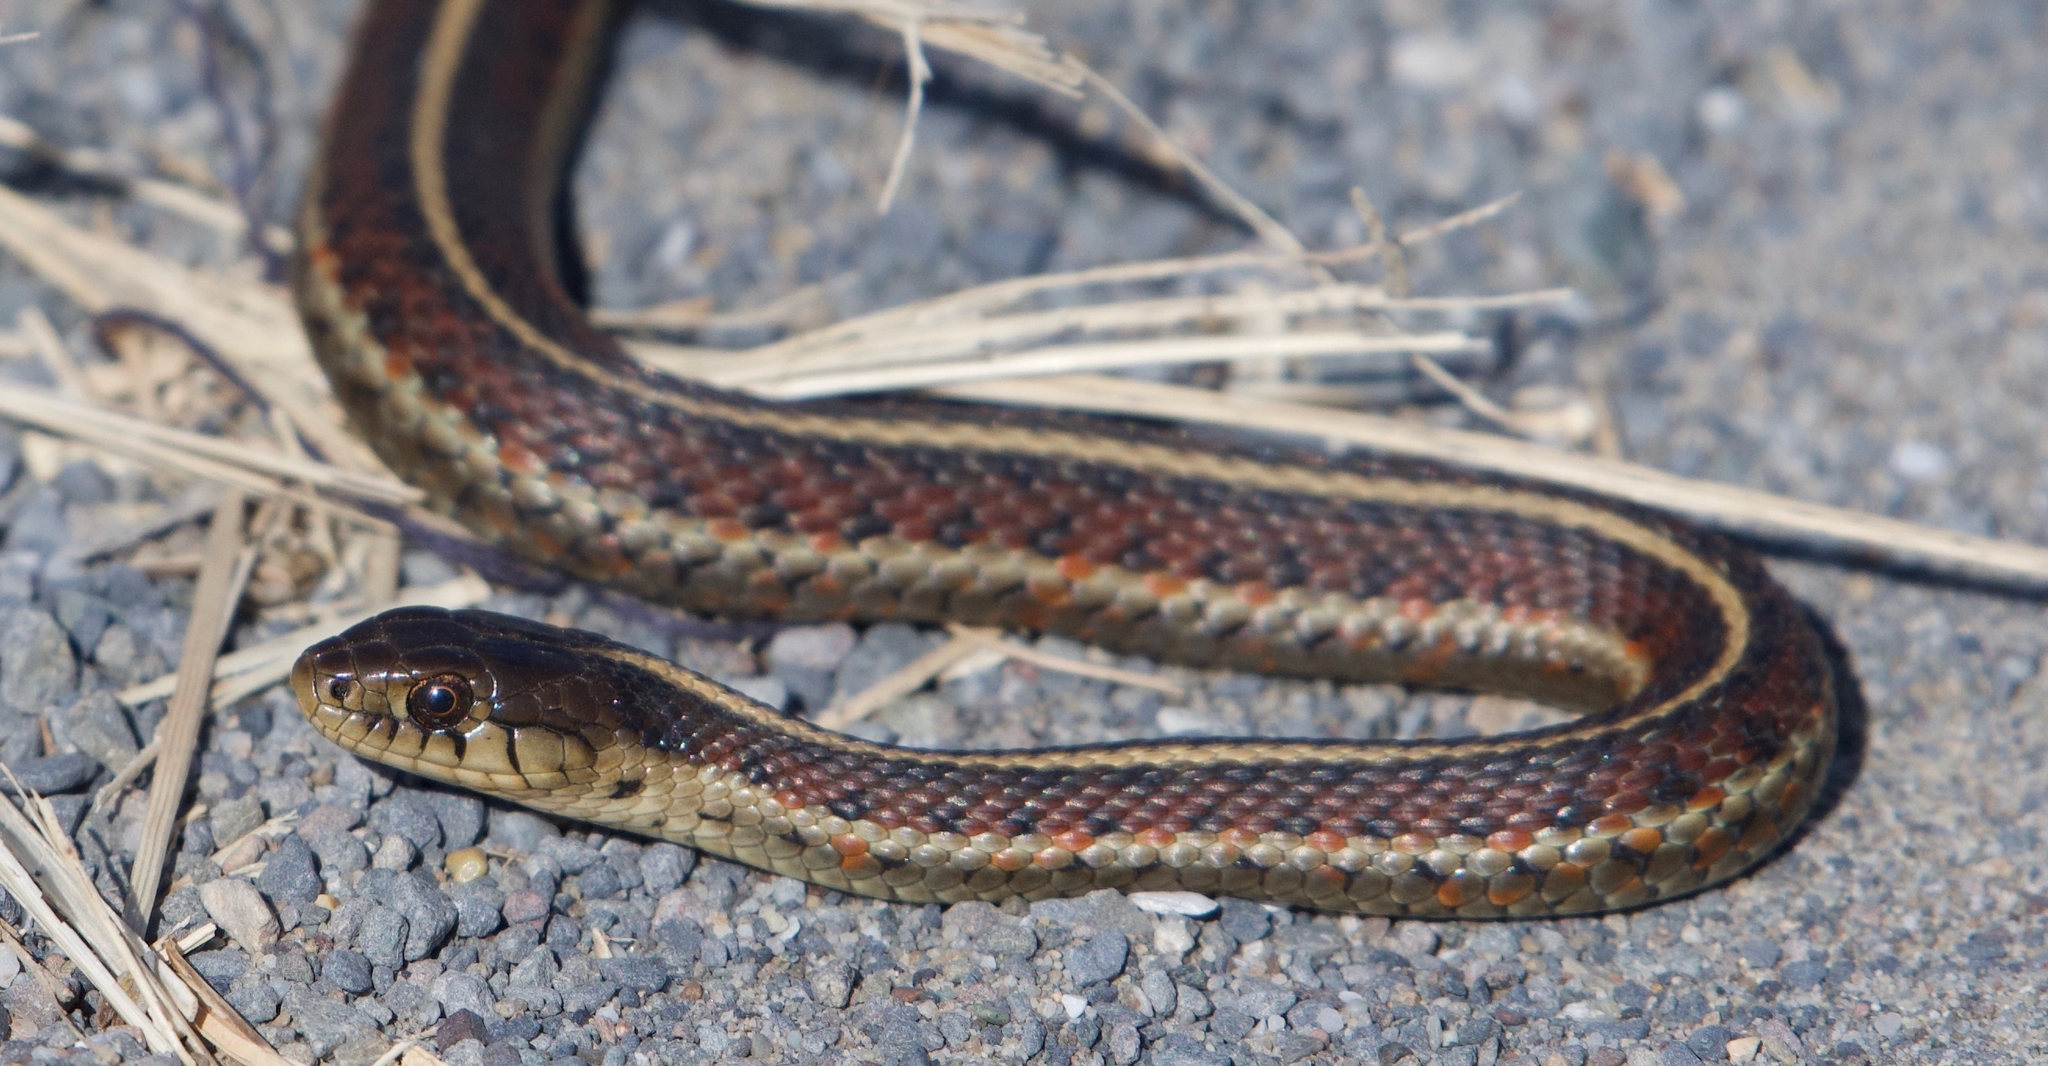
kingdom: Animalia
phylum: Chordata
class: Squamata
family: Colubridae
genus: Thamnophis
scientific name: Thamnophis elegans
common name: Western terrestrial garter snake
